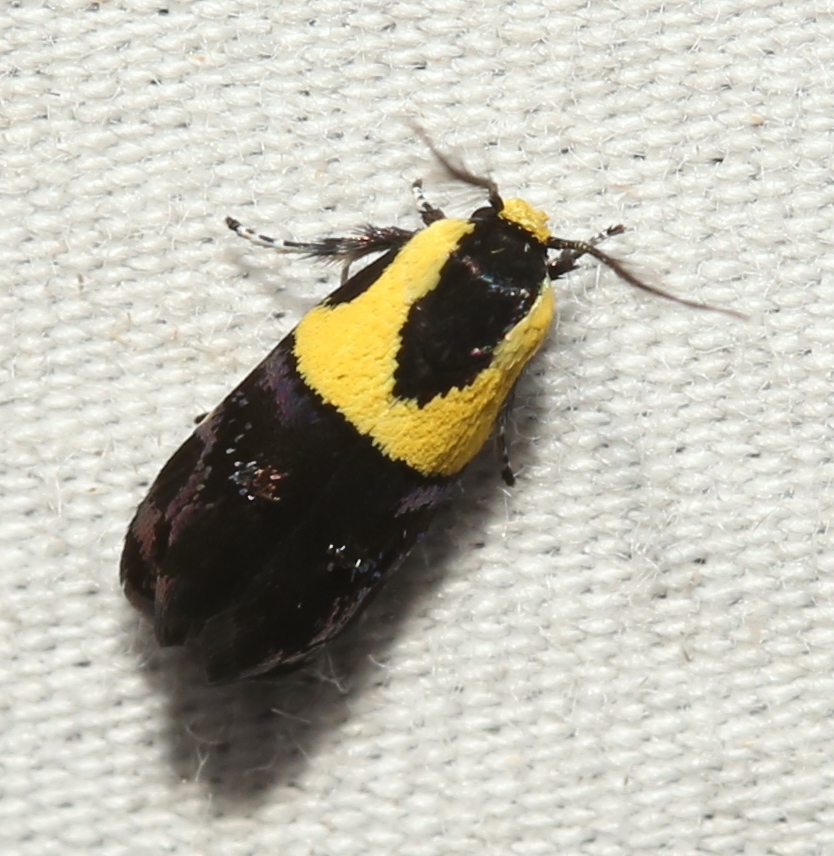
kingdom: Animalia
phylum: Arthropoda
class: Insecta
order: Lepidoptera
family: Depressariidae
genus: Rectiostoma
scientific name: Rectiostoma xanthobasis
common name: Yellow-vested moth
